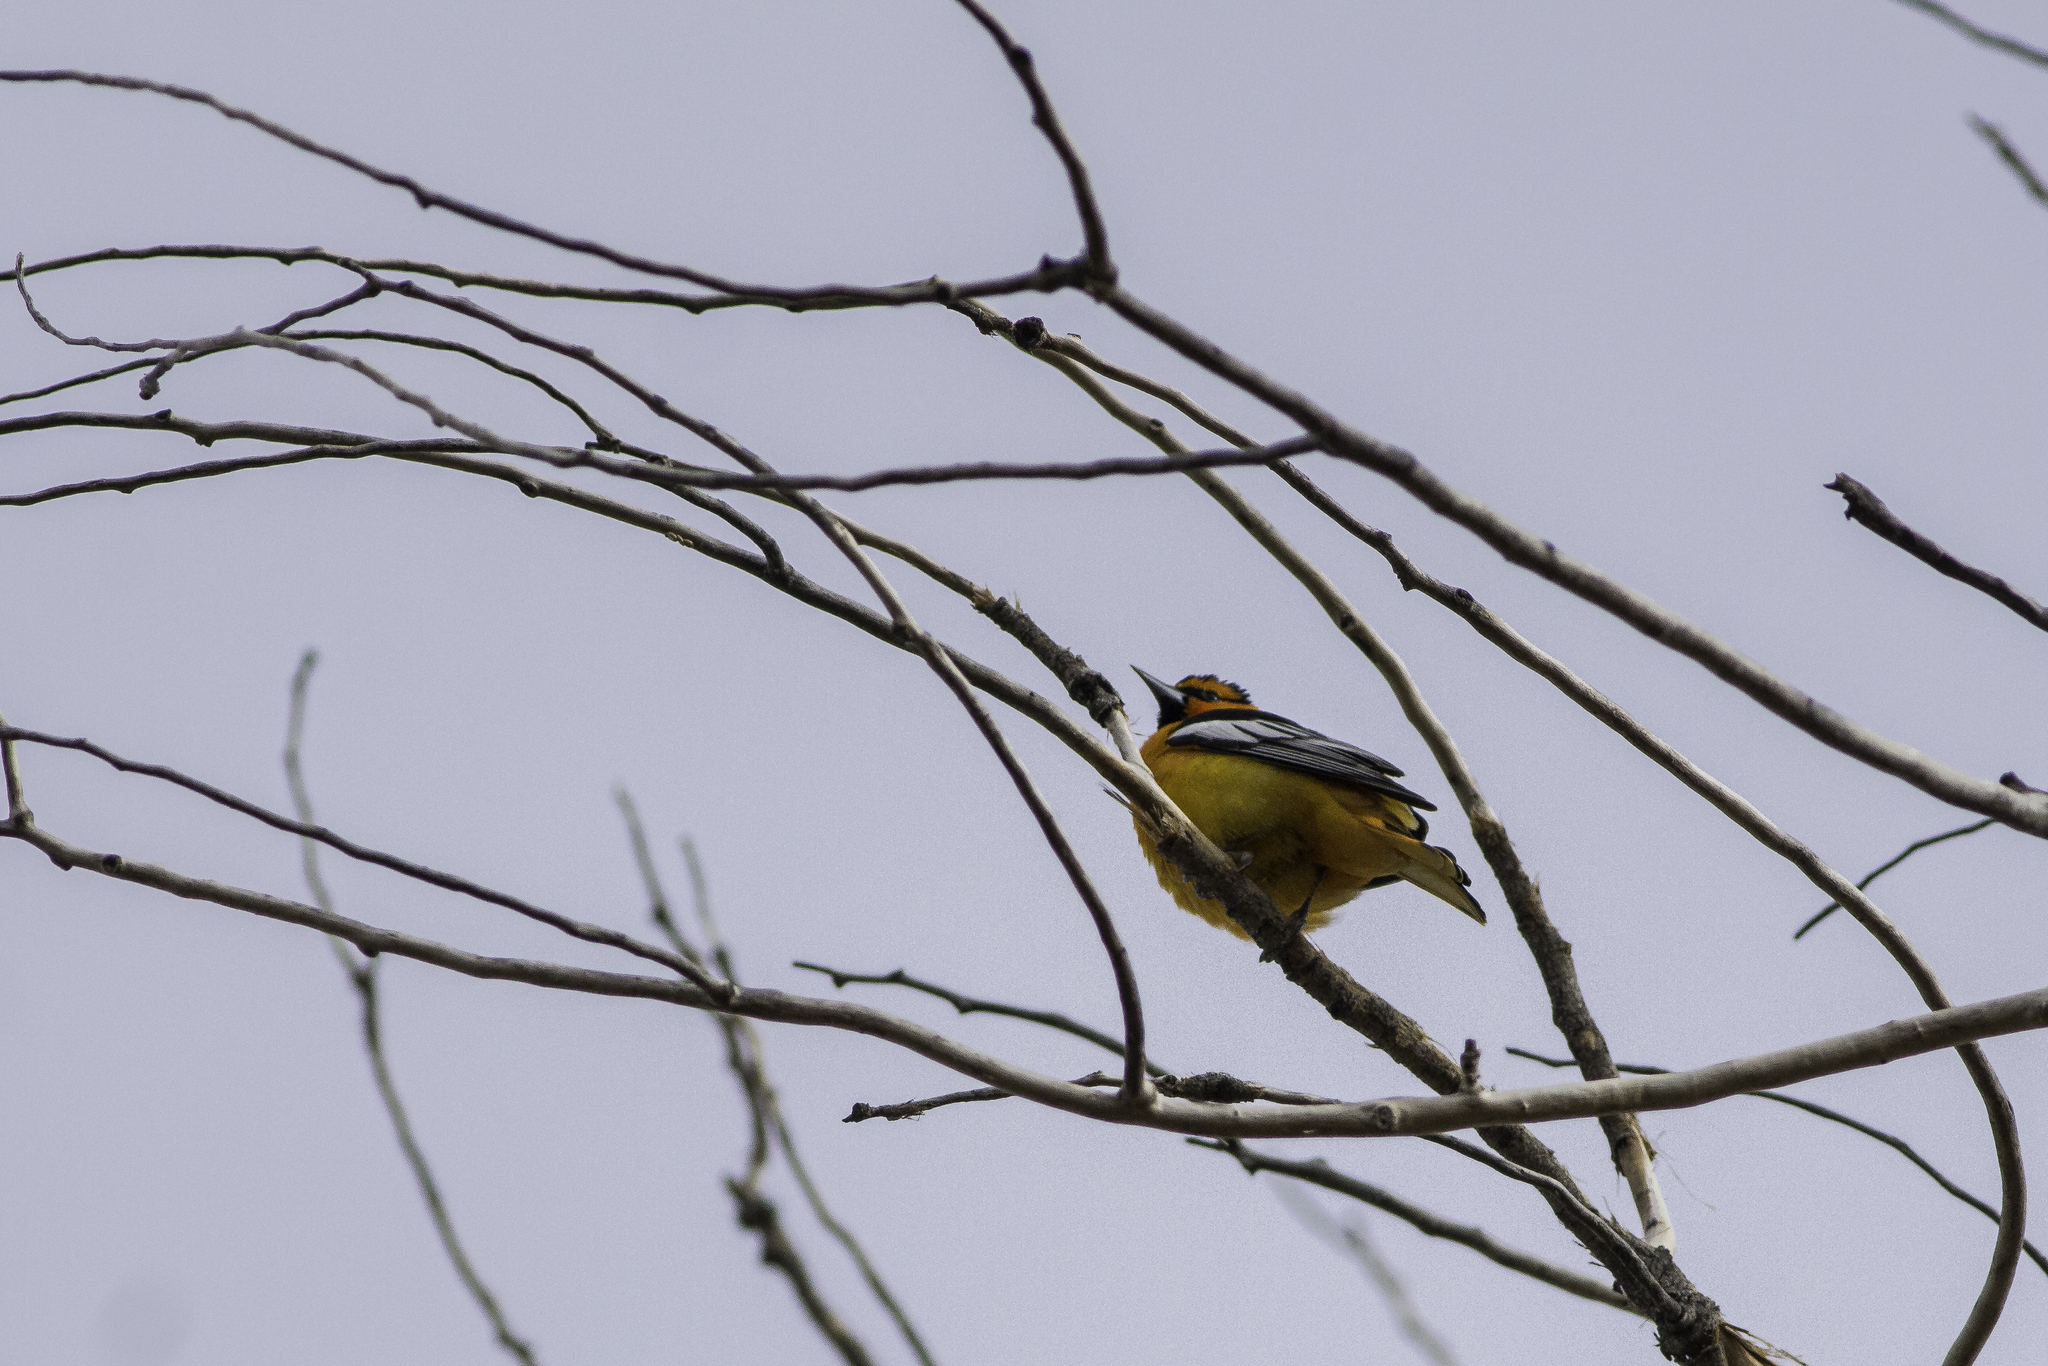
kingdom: Animalia
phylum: Chordata
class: Aves
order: Passeriformes
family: Icteridae
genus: Icterus
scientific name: Icterus bullockii
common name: Bullock's oriole
